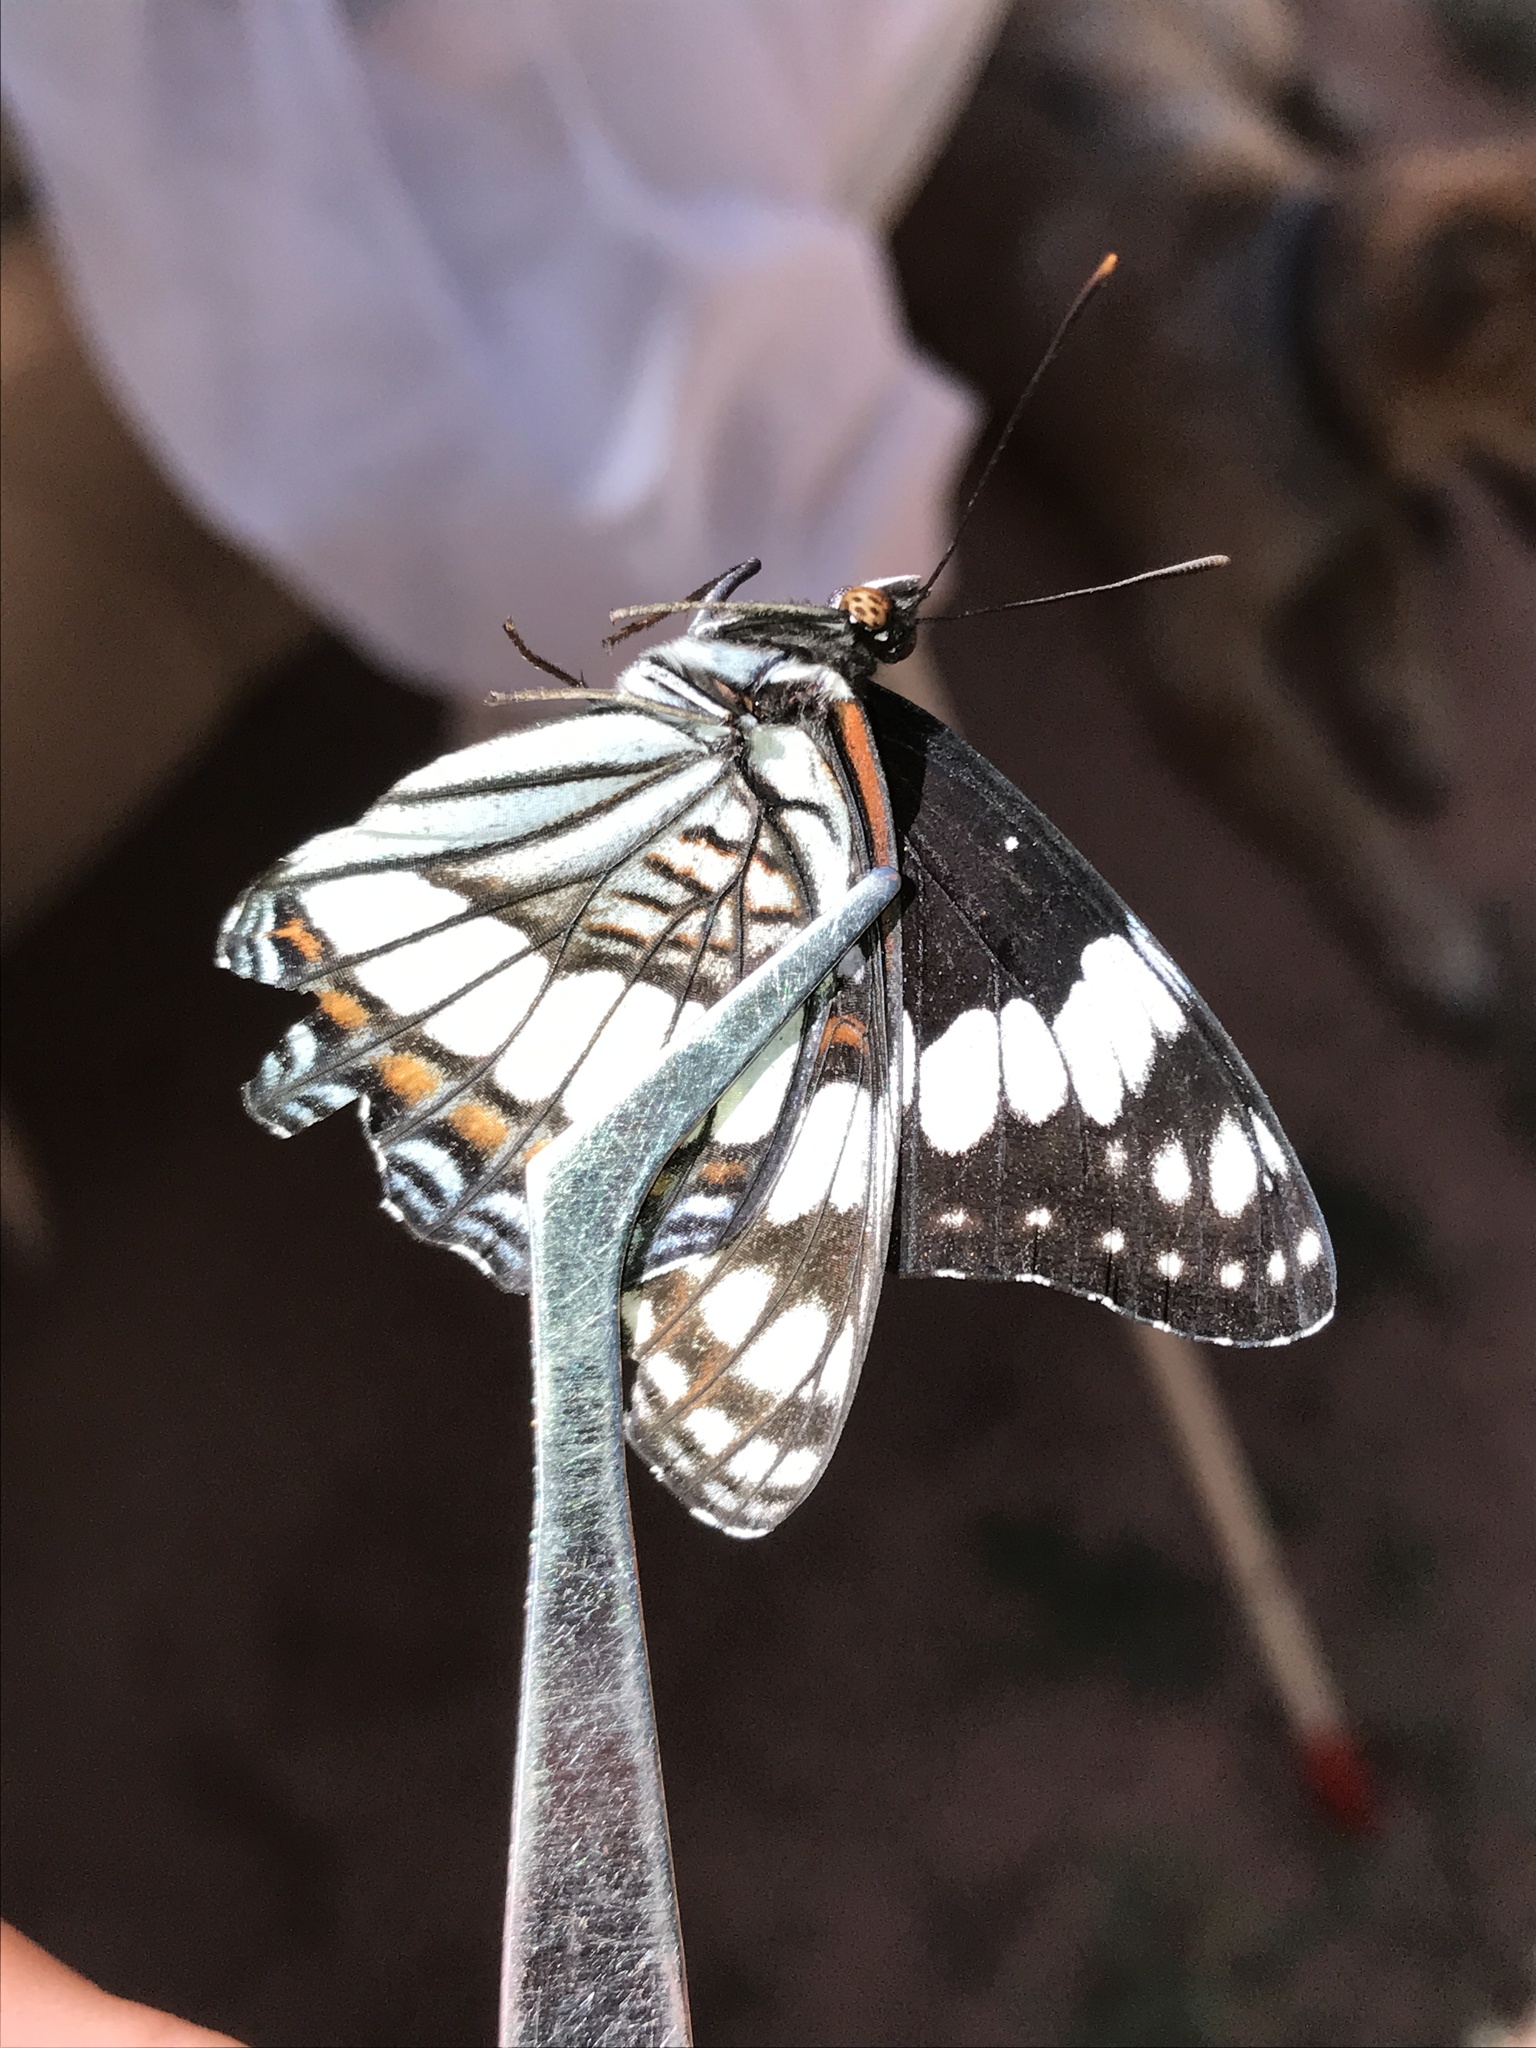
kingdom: Animalia
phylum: Arthropoda
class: Insecta
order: Lepidoptera
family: Nymphalidae
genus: Limenitis
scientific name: Limenitis weidemeyerii
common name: Weidemeyer's admiral
